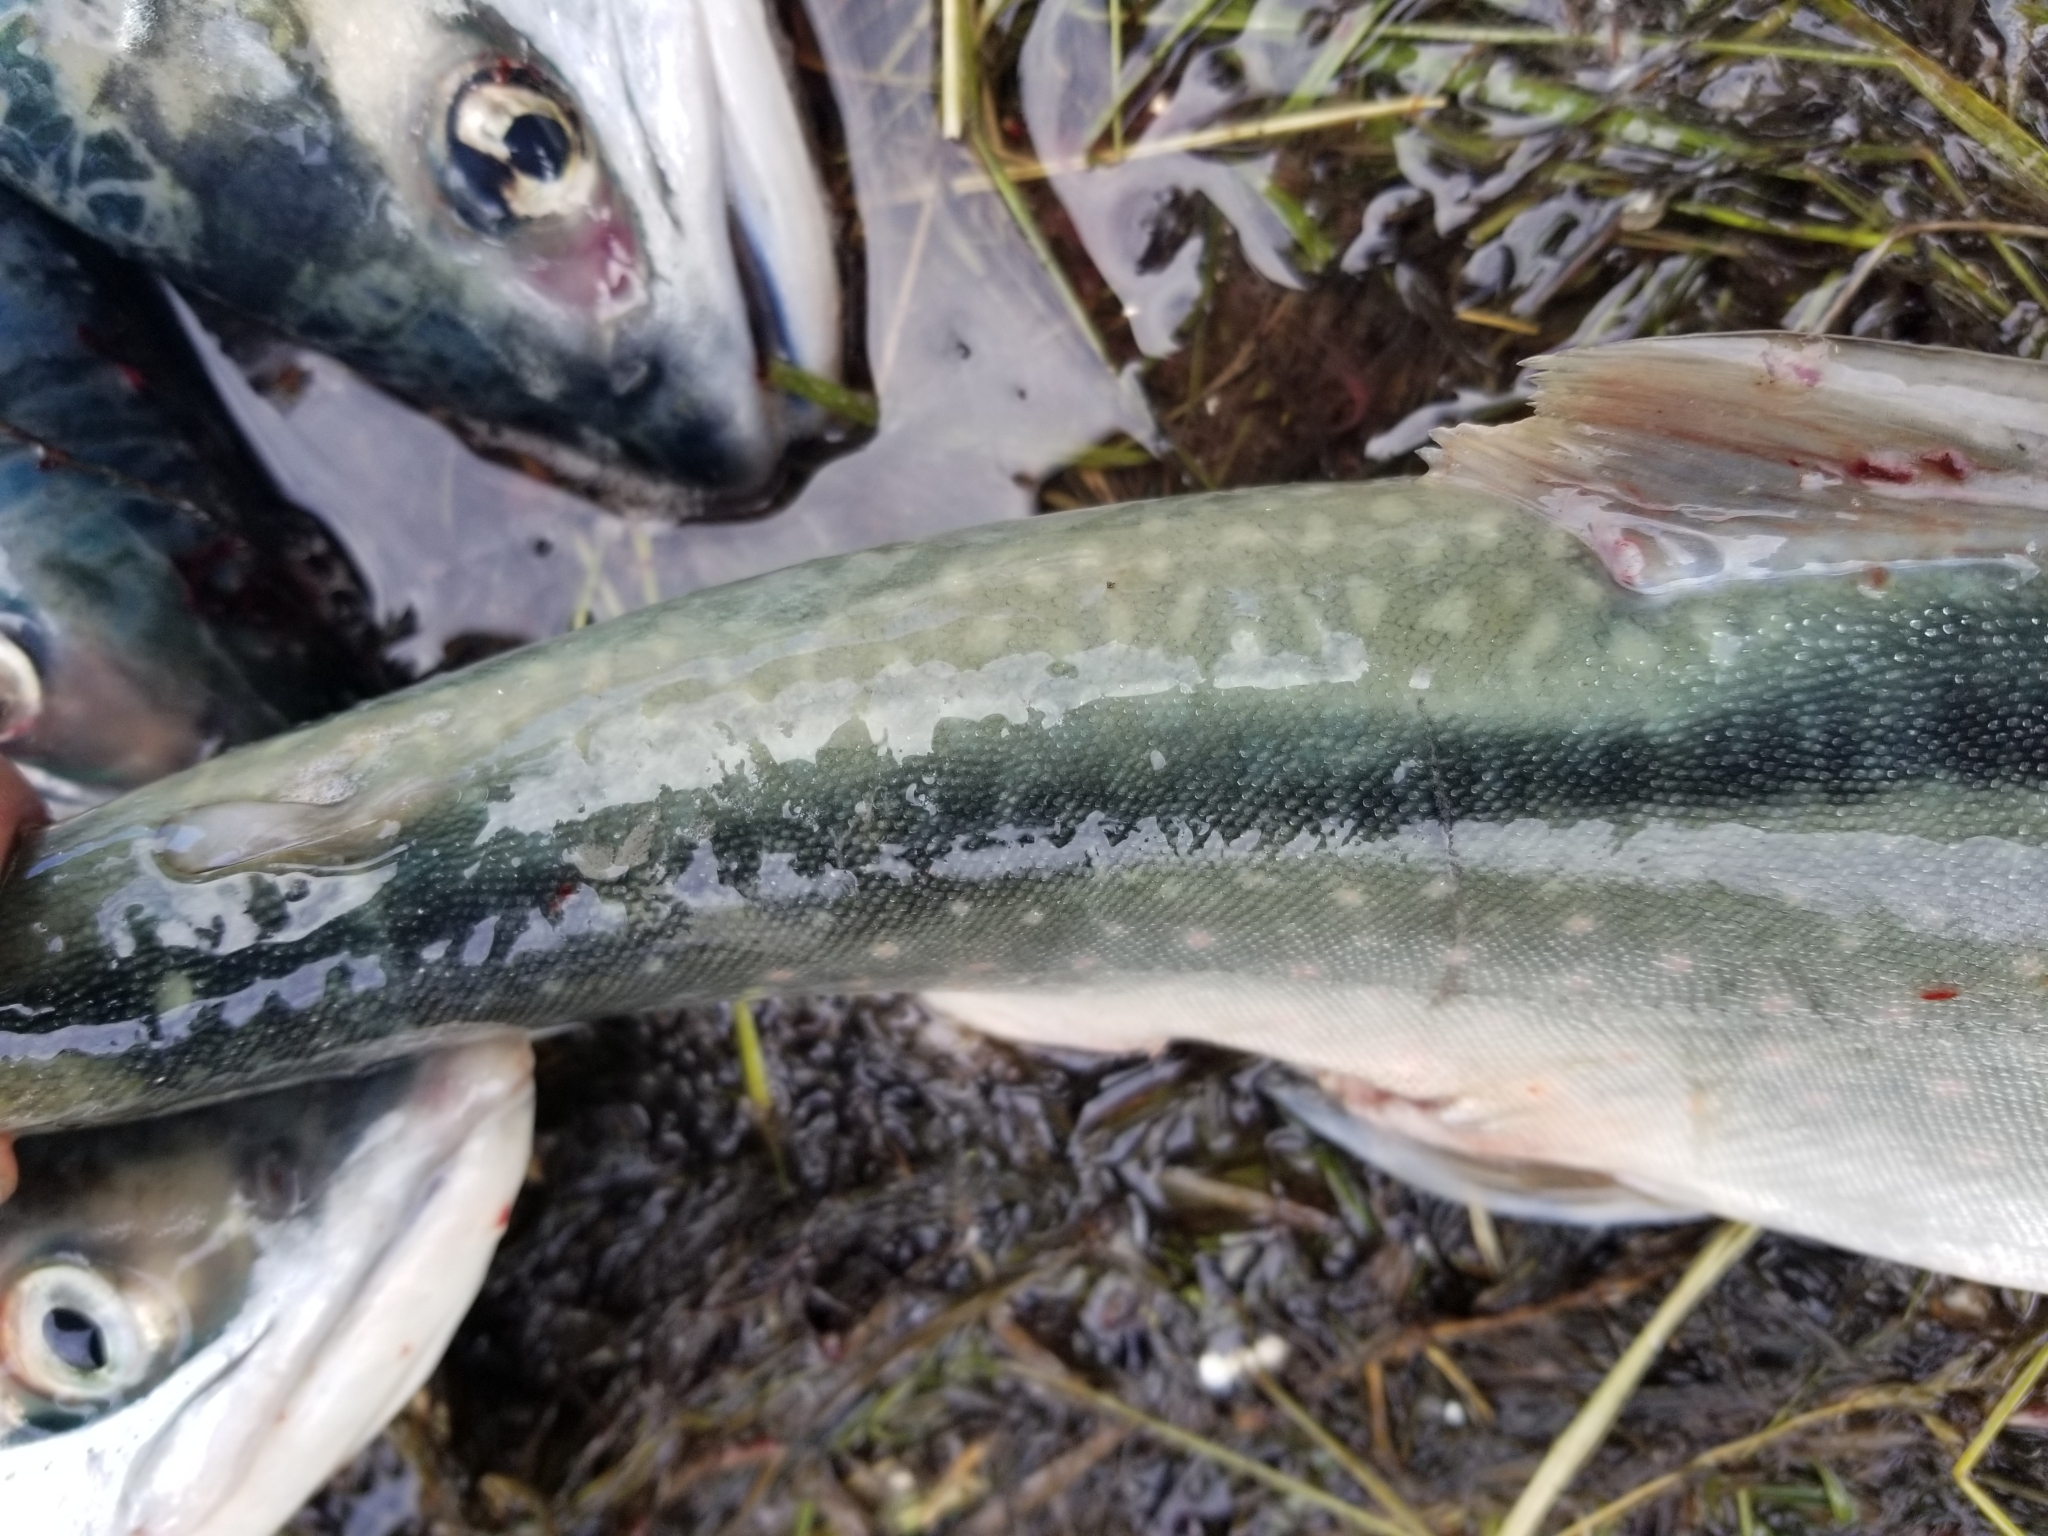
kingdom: Animalia
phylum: Chordata
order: Salmoniformes
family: Salmonidae
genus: Salvelinus
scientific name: Salvelinus malma
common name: Dolly varden charr
